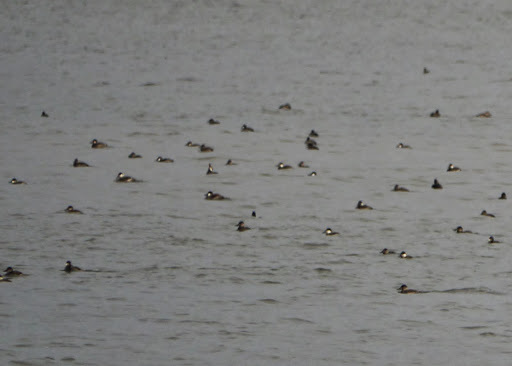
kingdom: Animalia
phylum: Chordata
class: Aves
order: Anseriformes
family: Anatidae
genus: Oxyura
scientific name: Oxyura jamaicensis
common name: Ruddy duck
